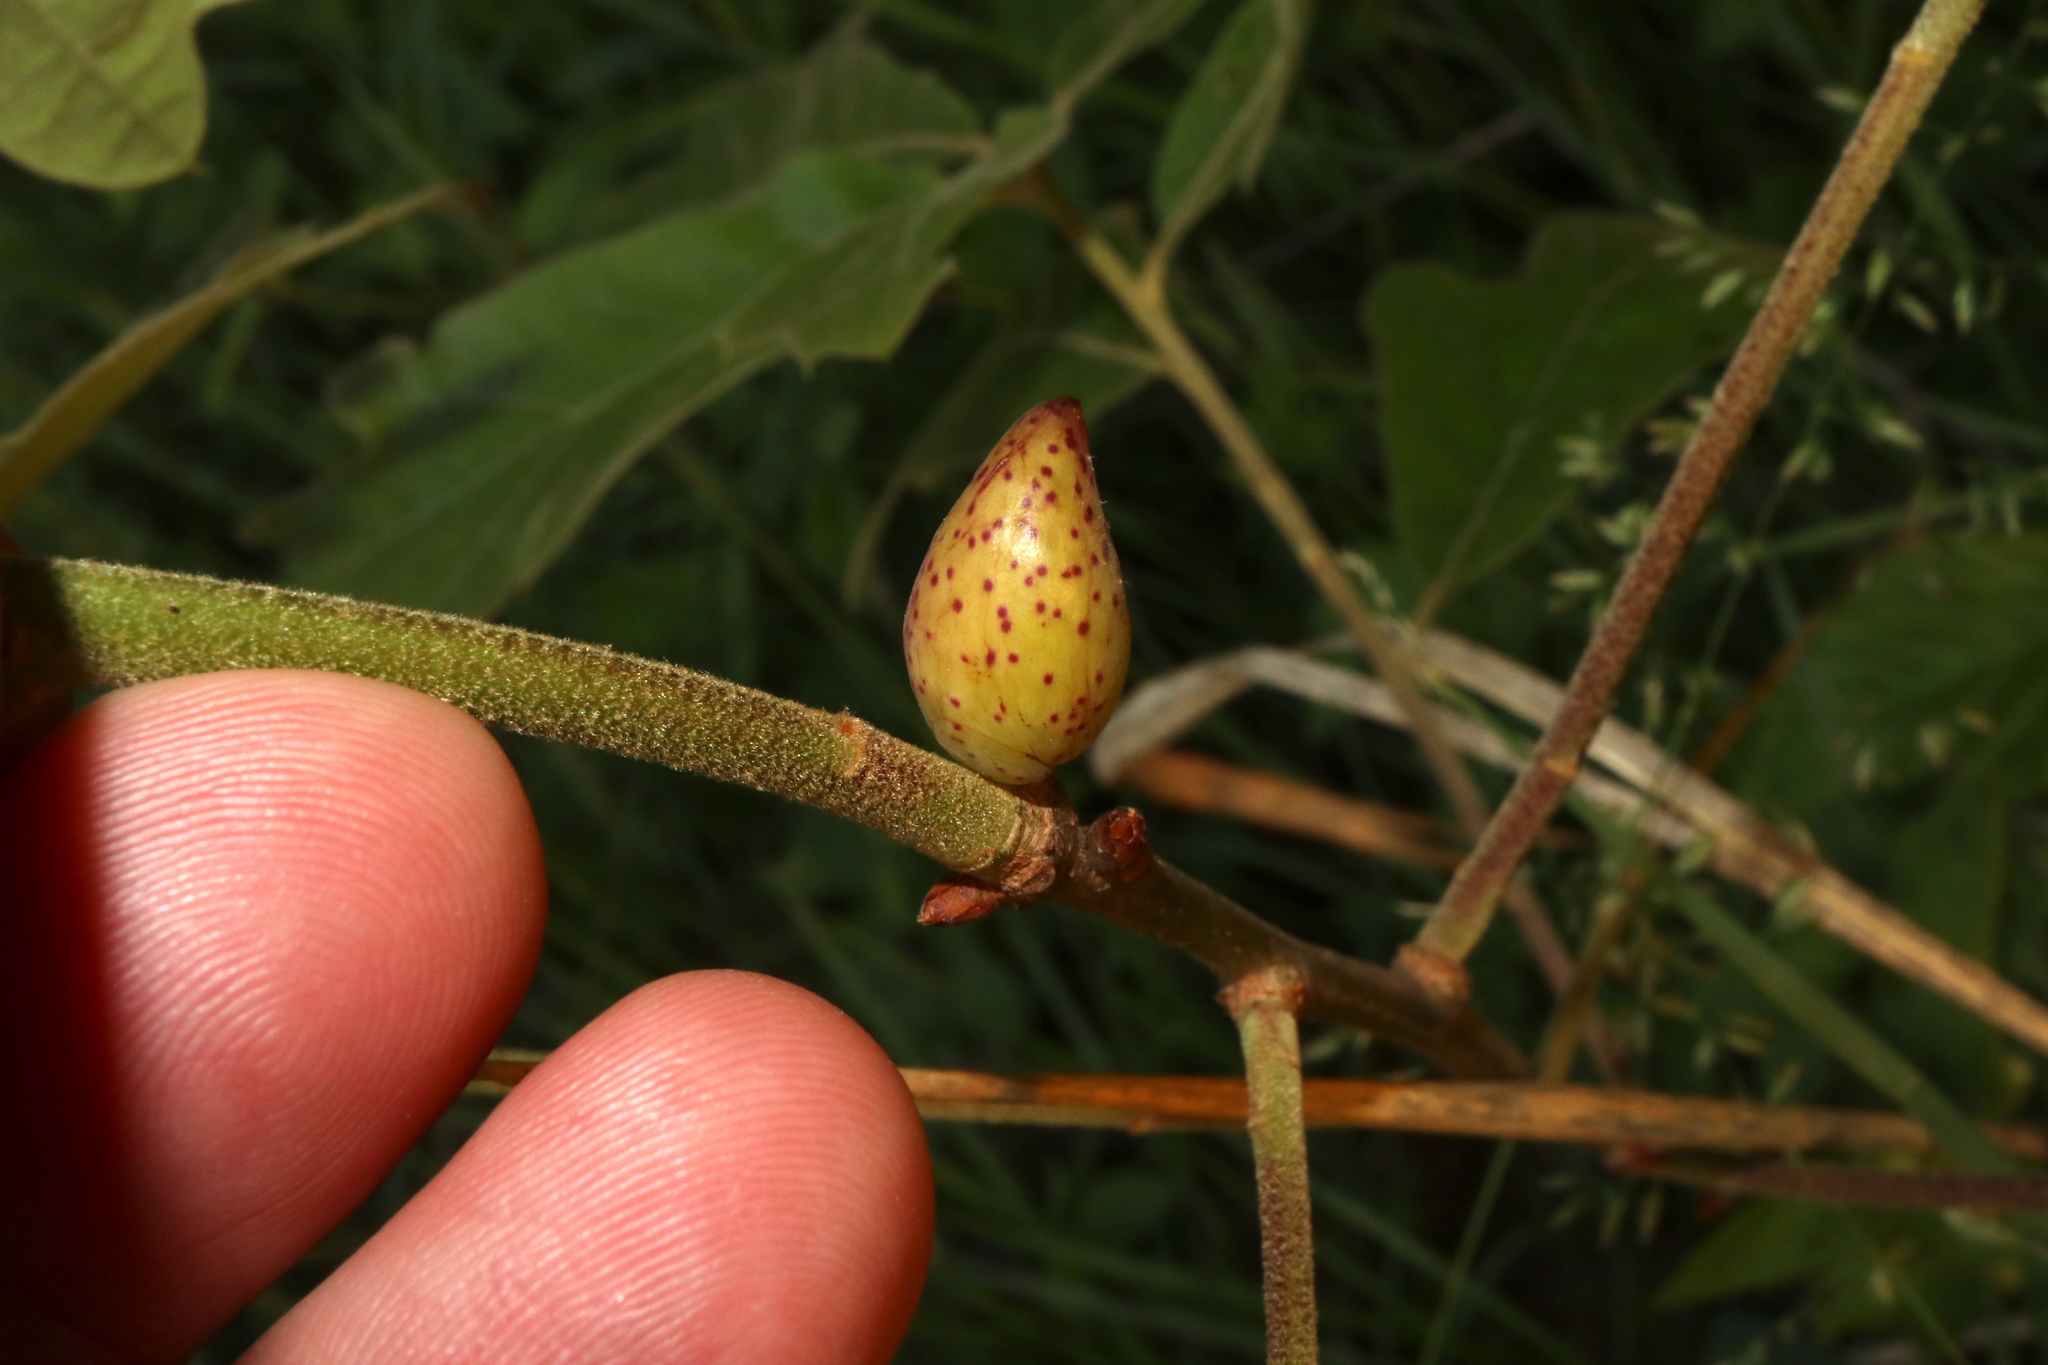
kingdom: Animalia
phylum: Arthropoda
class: Insecta
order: Hymenoptera
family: Cynipidae
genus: Amphibolips
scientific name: Amphibolips
